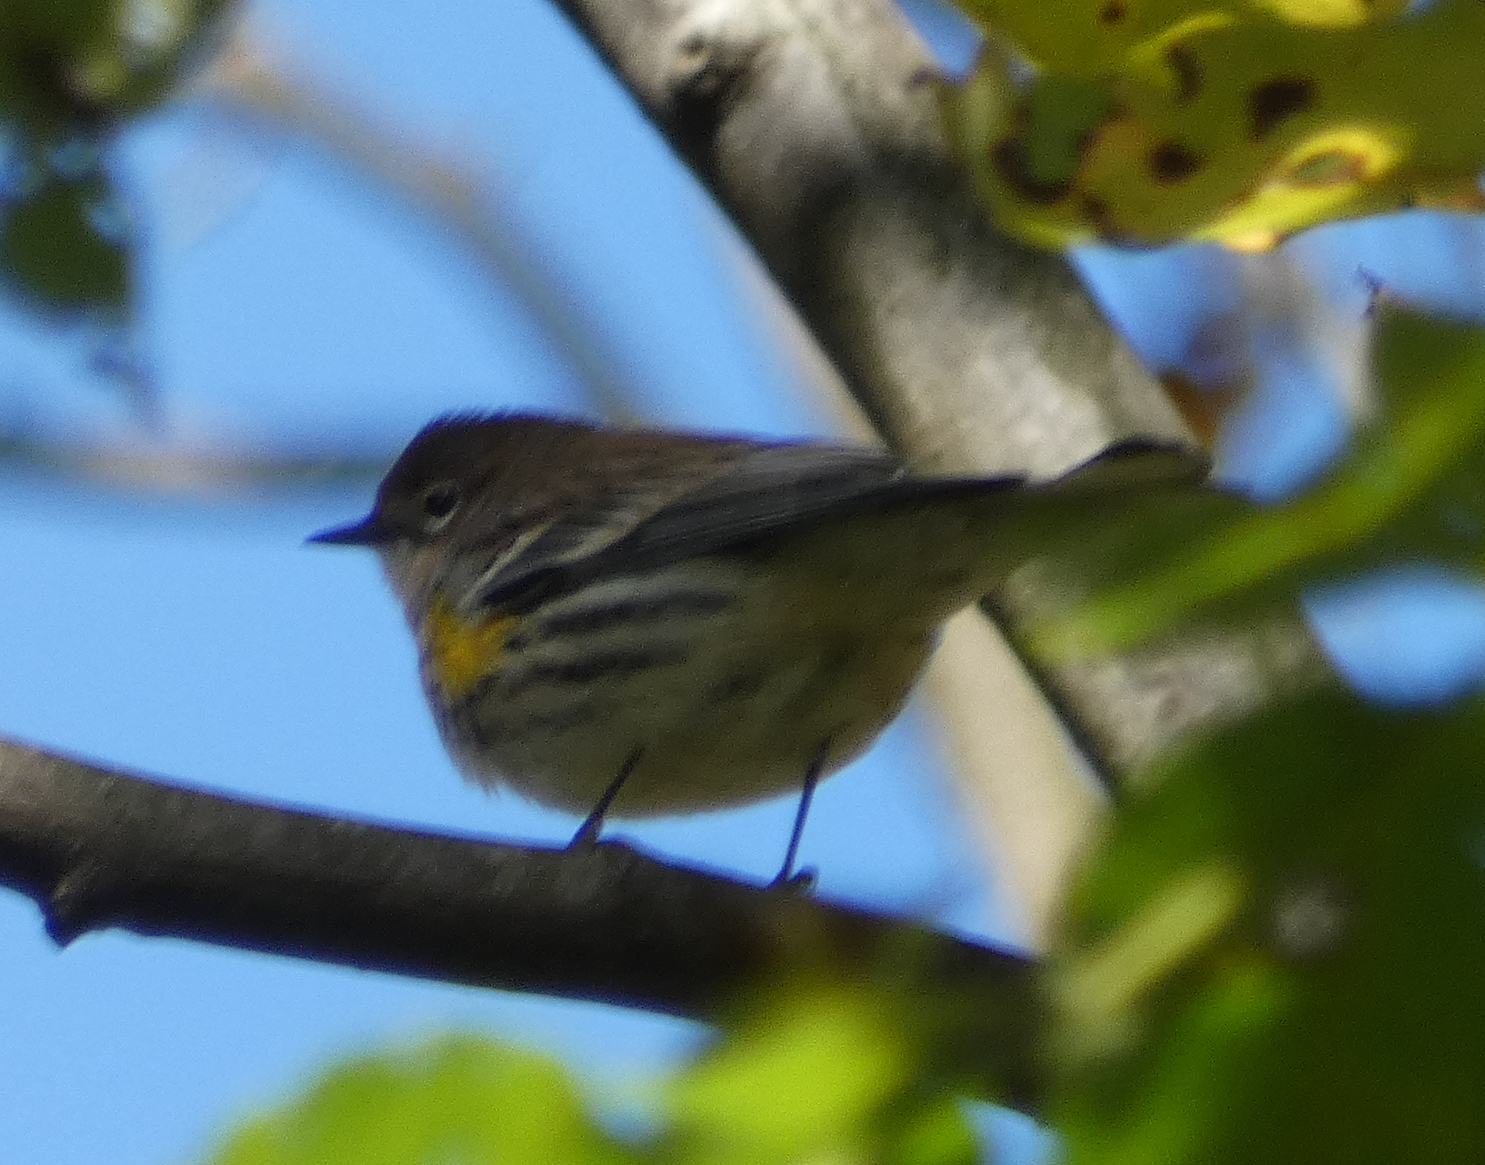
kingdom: Animalia
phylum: Chordata
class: Aves
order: Passeriformes
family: Parulidae
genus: Setophaga
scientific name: Setophaga coronata
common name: Myrtle warbler
